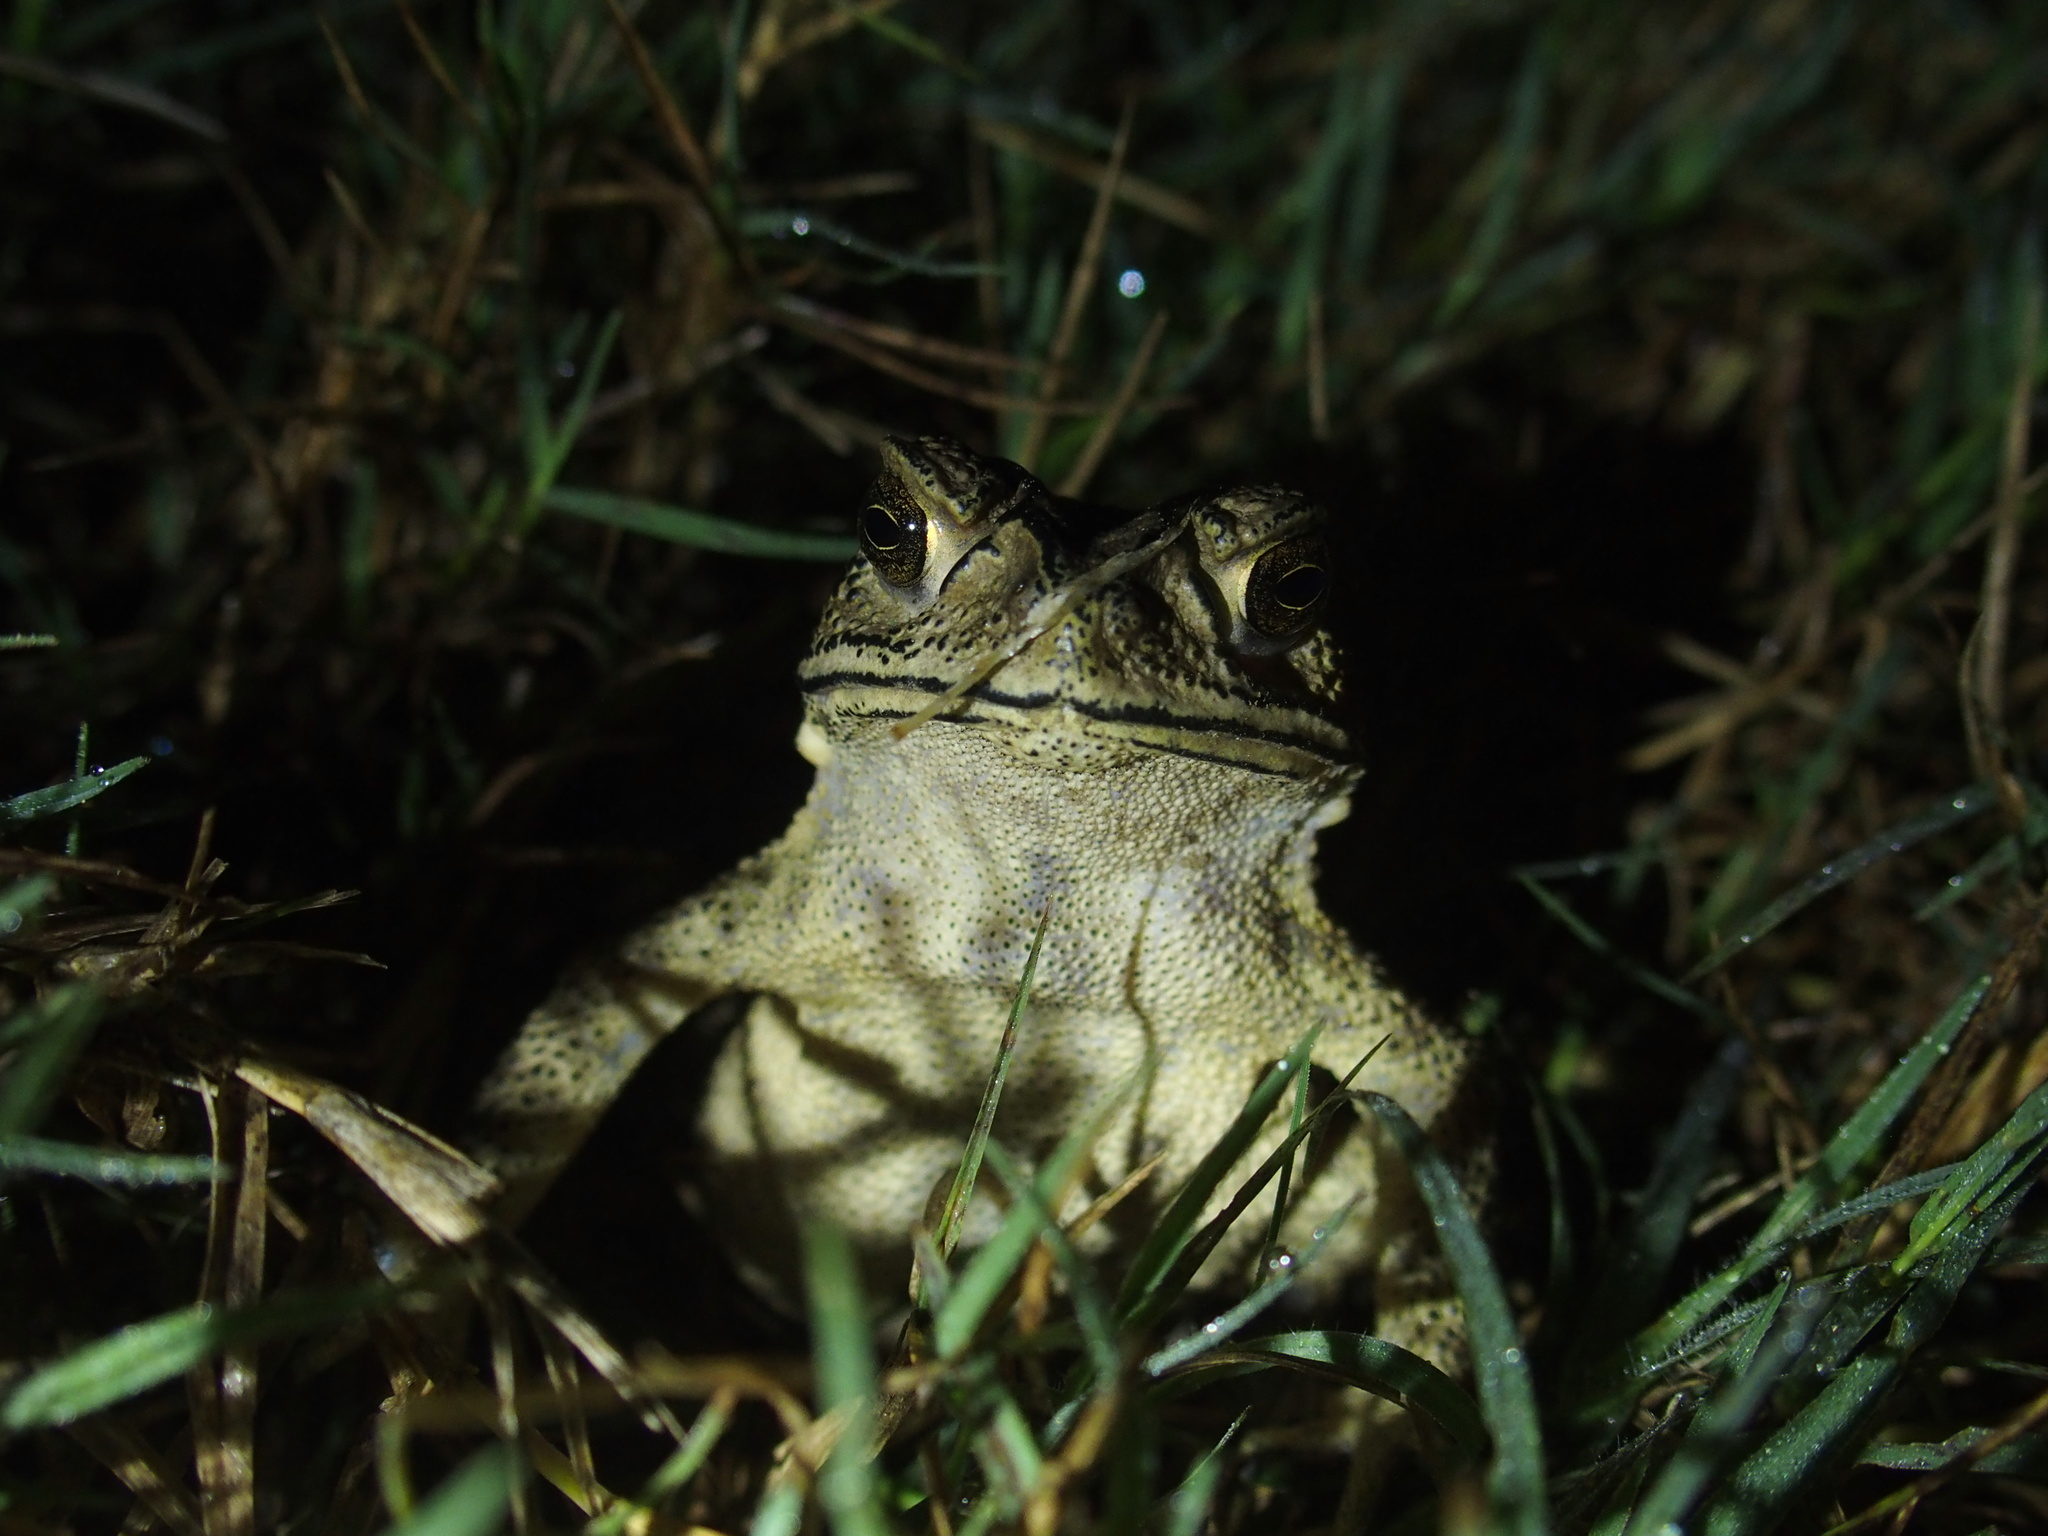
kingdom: Animalia
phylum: Chordata
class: Amphibia
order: Anura
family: Bufonidae
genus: Duttaphrynus
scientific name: Duttaphrynus melanostictus
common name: Common sunda toad
